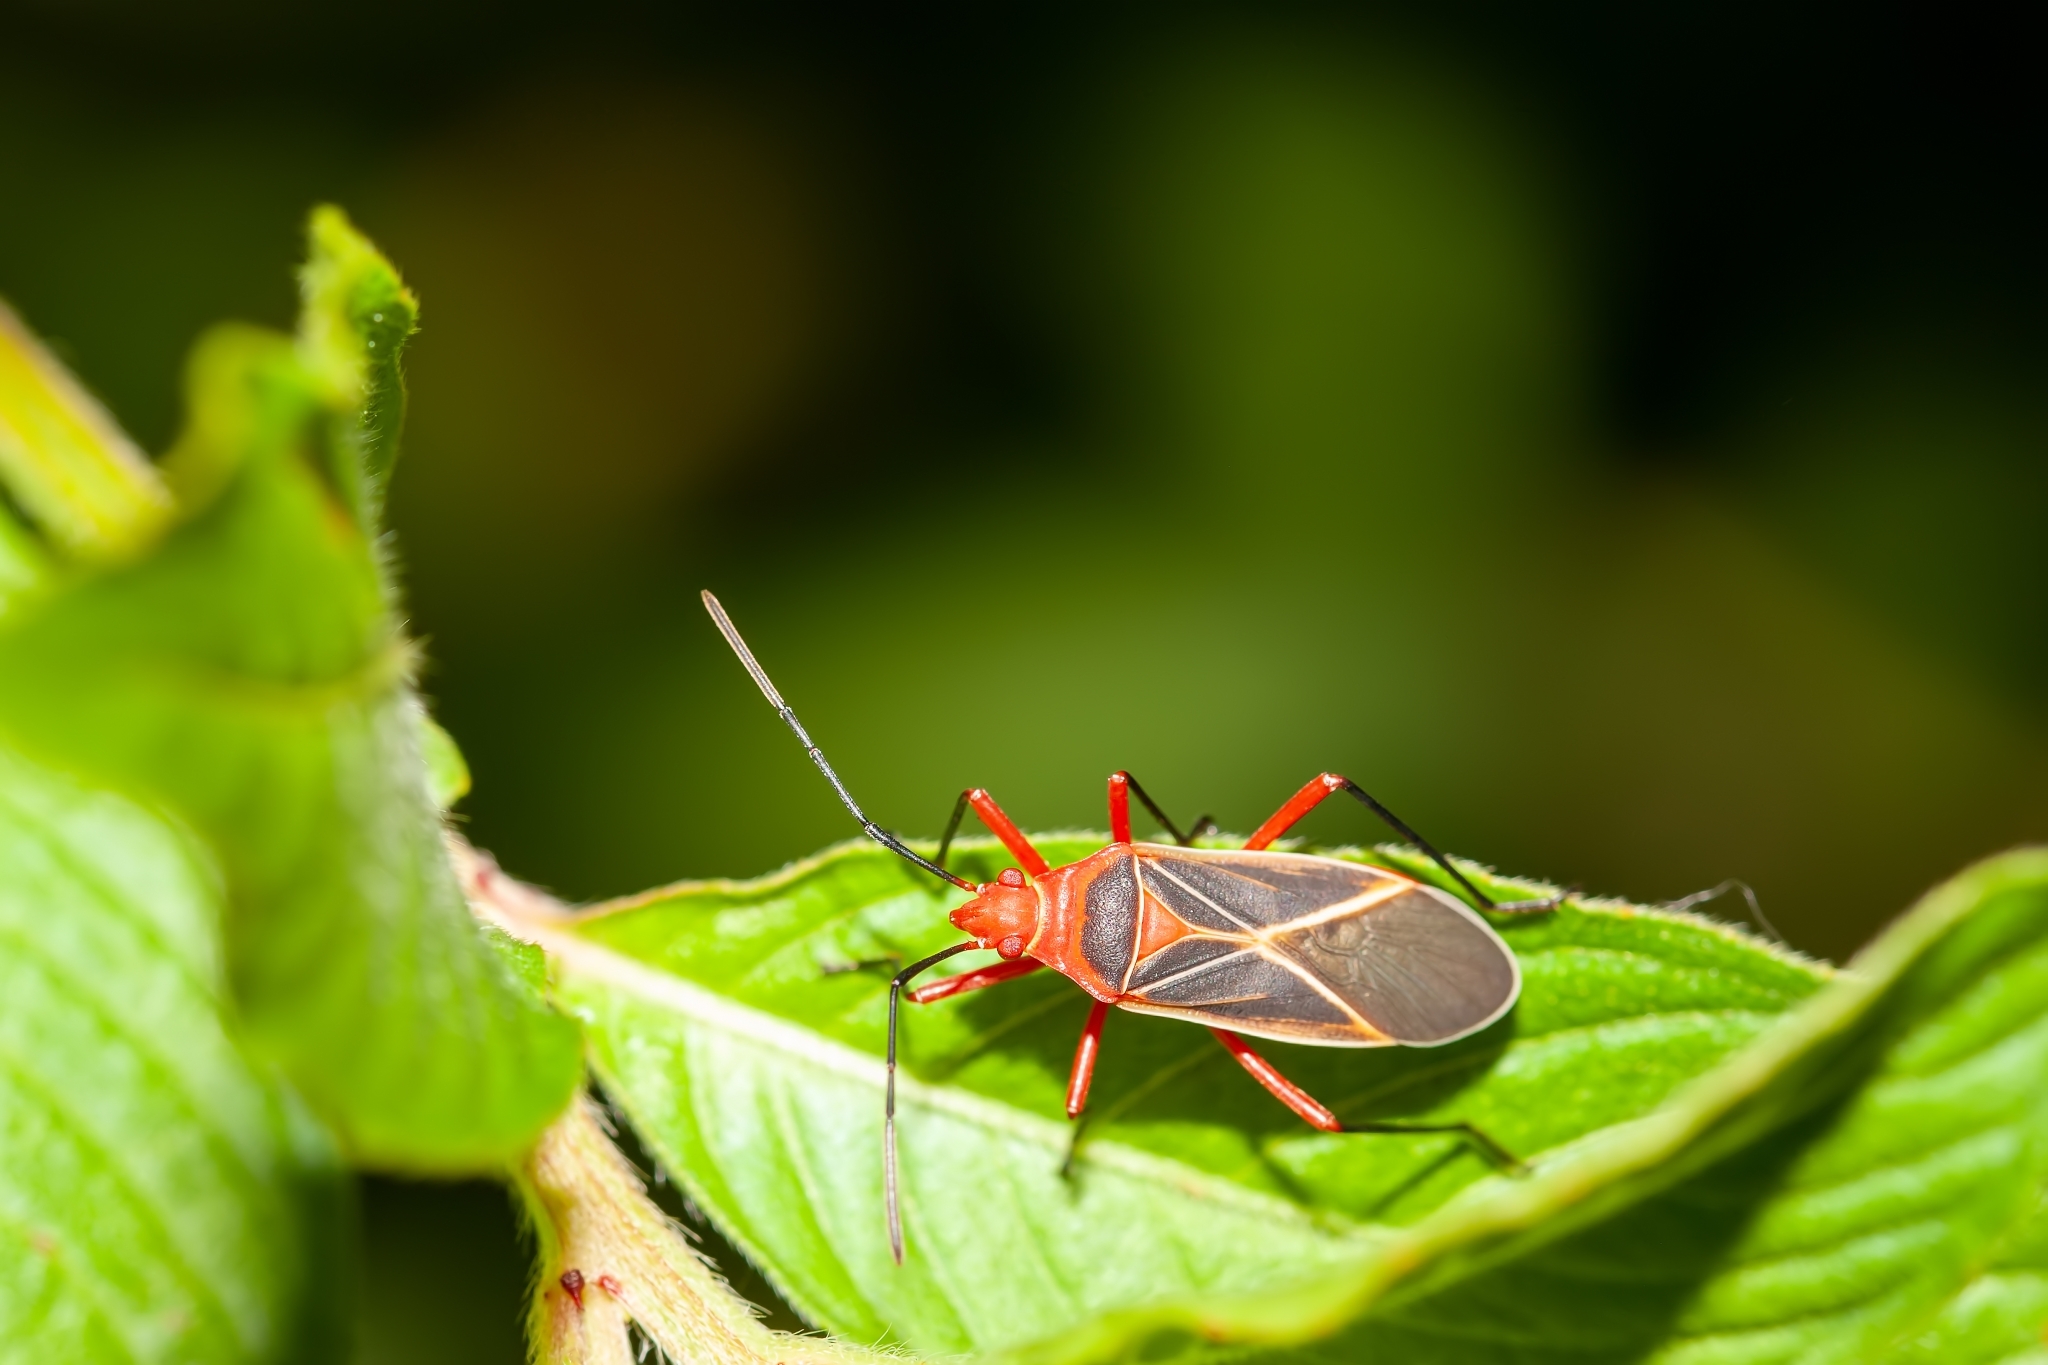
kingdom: Animalia
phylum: Arthropoda
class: Insecta
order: Hemiptera
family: Pyrrhocoridae
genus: Dysdercus
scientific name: Dysdercus suturellus
